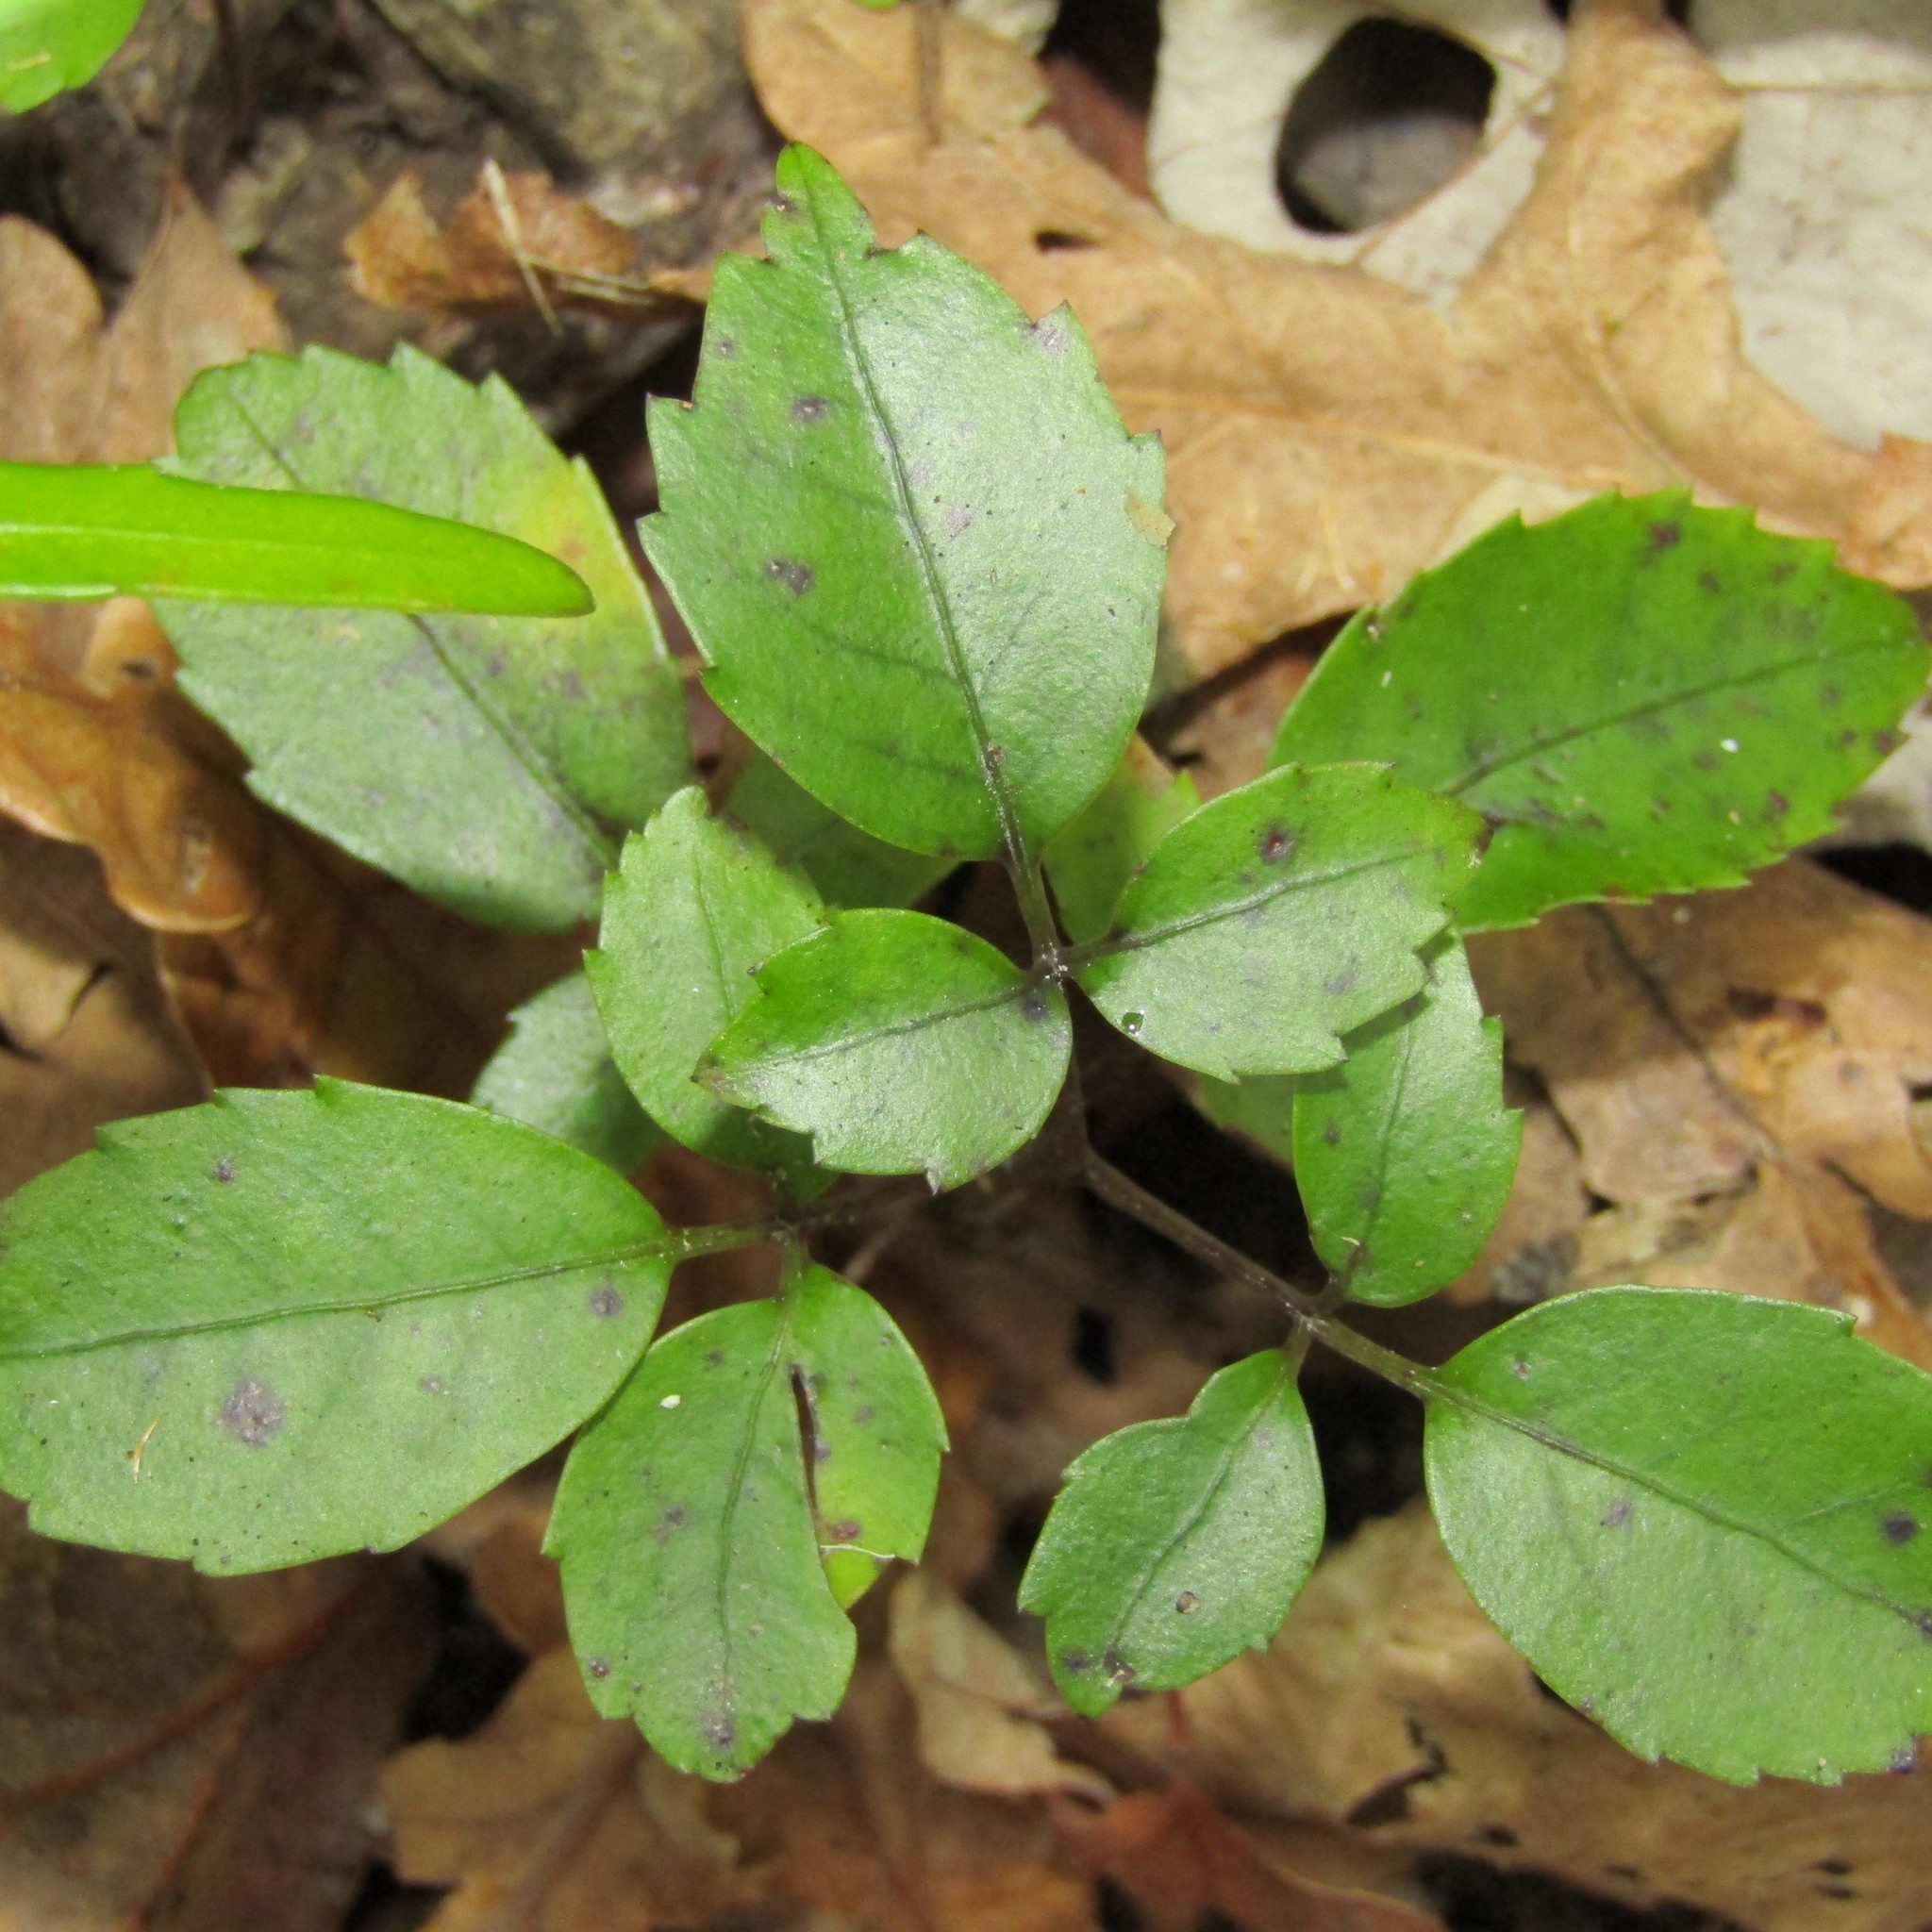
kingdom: Plantae
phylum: Tracheophyta
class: Magnoliopsida
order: Apiales
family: Araliaceae
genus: Neopanax
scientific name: Neopanax arboreus
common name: Five-fingers
